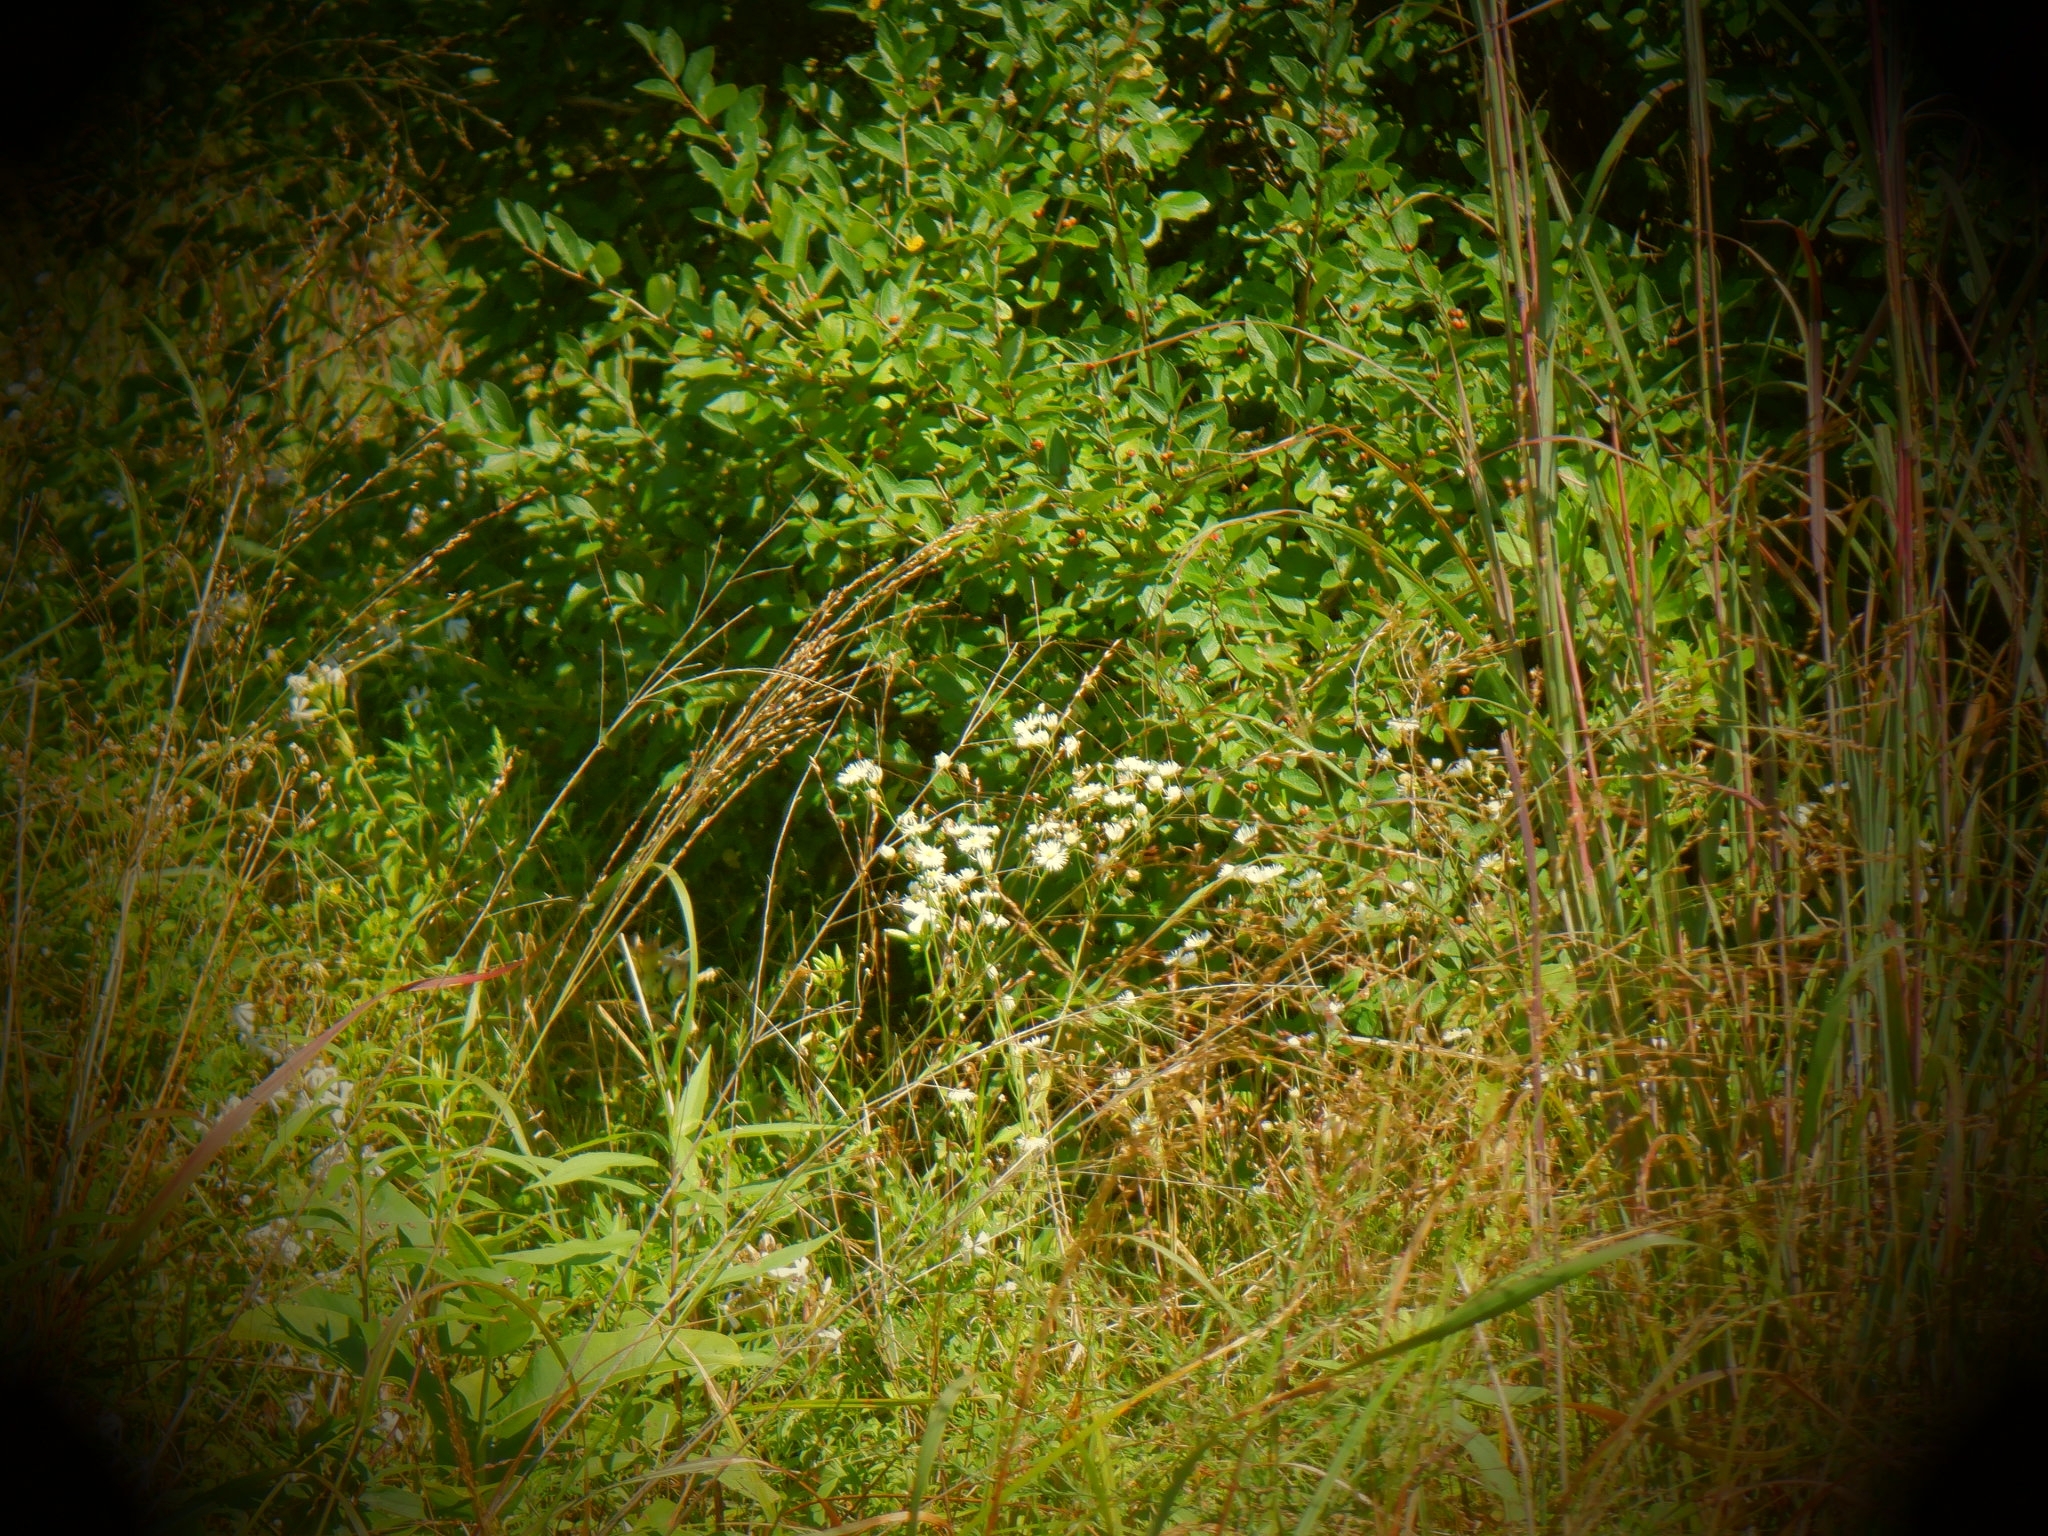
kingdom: Plantae
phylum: Tracheophyta
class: Magnoliopsida
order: Asterales
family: Asteraceae
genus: Erigeron
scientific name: Erigeron
